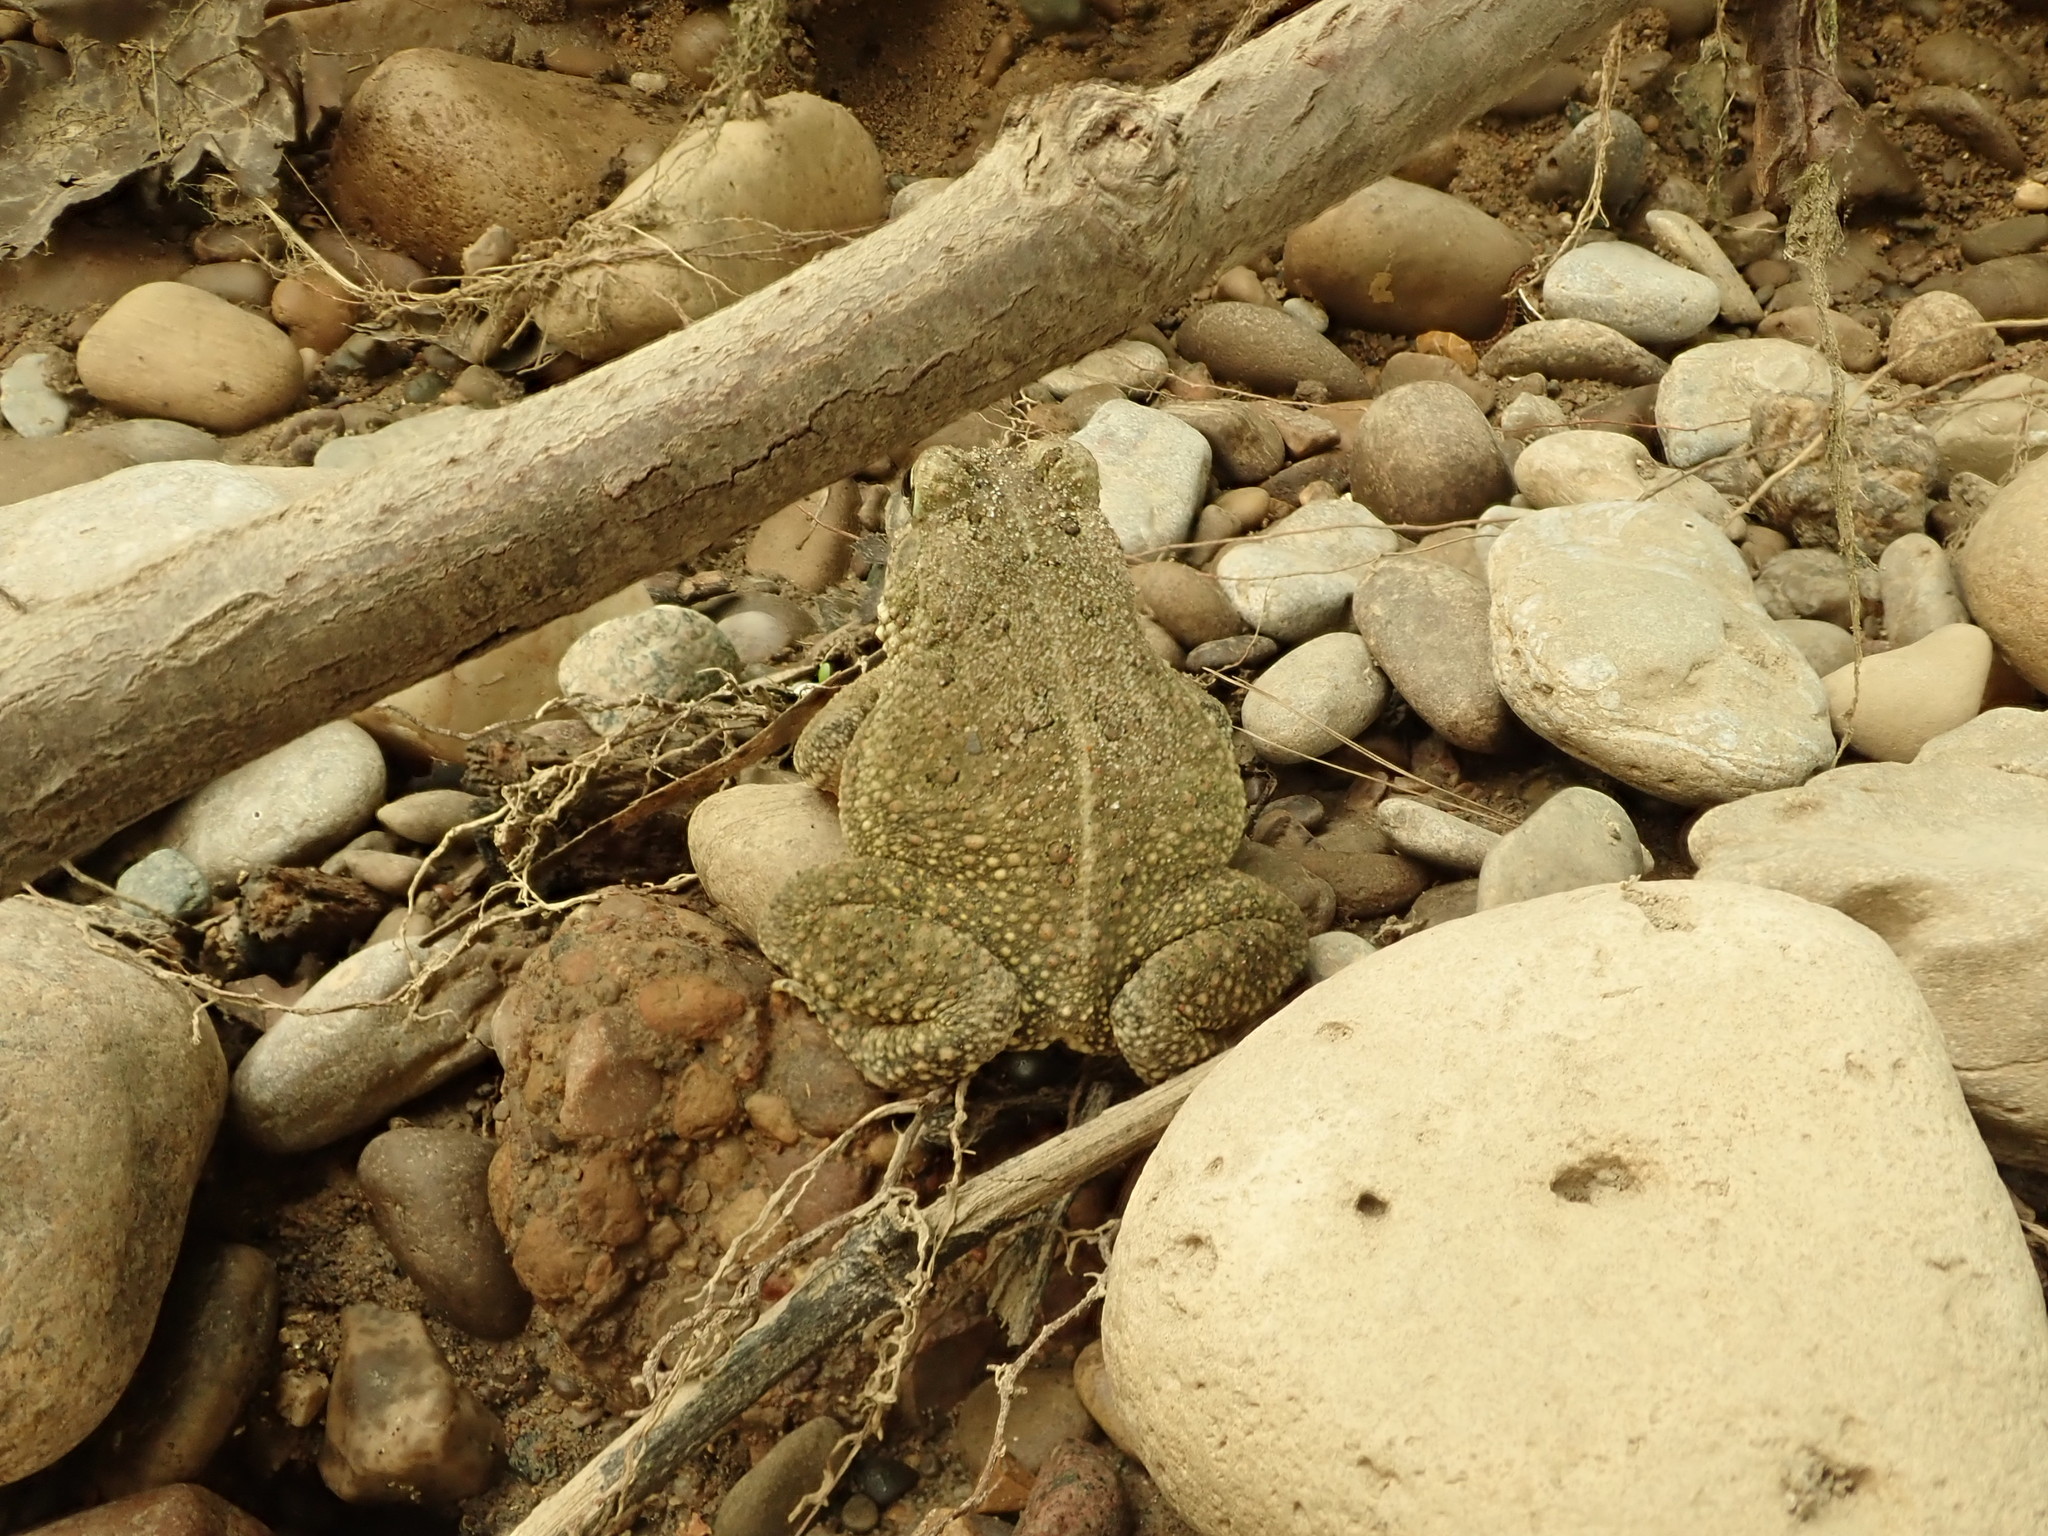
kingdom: Animalia
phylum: Chordata
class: Amphibia
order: Anura
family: Bufonidae
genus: Anaxyrus
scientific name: Anaxyrus fowleri
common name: Fowler's toad
